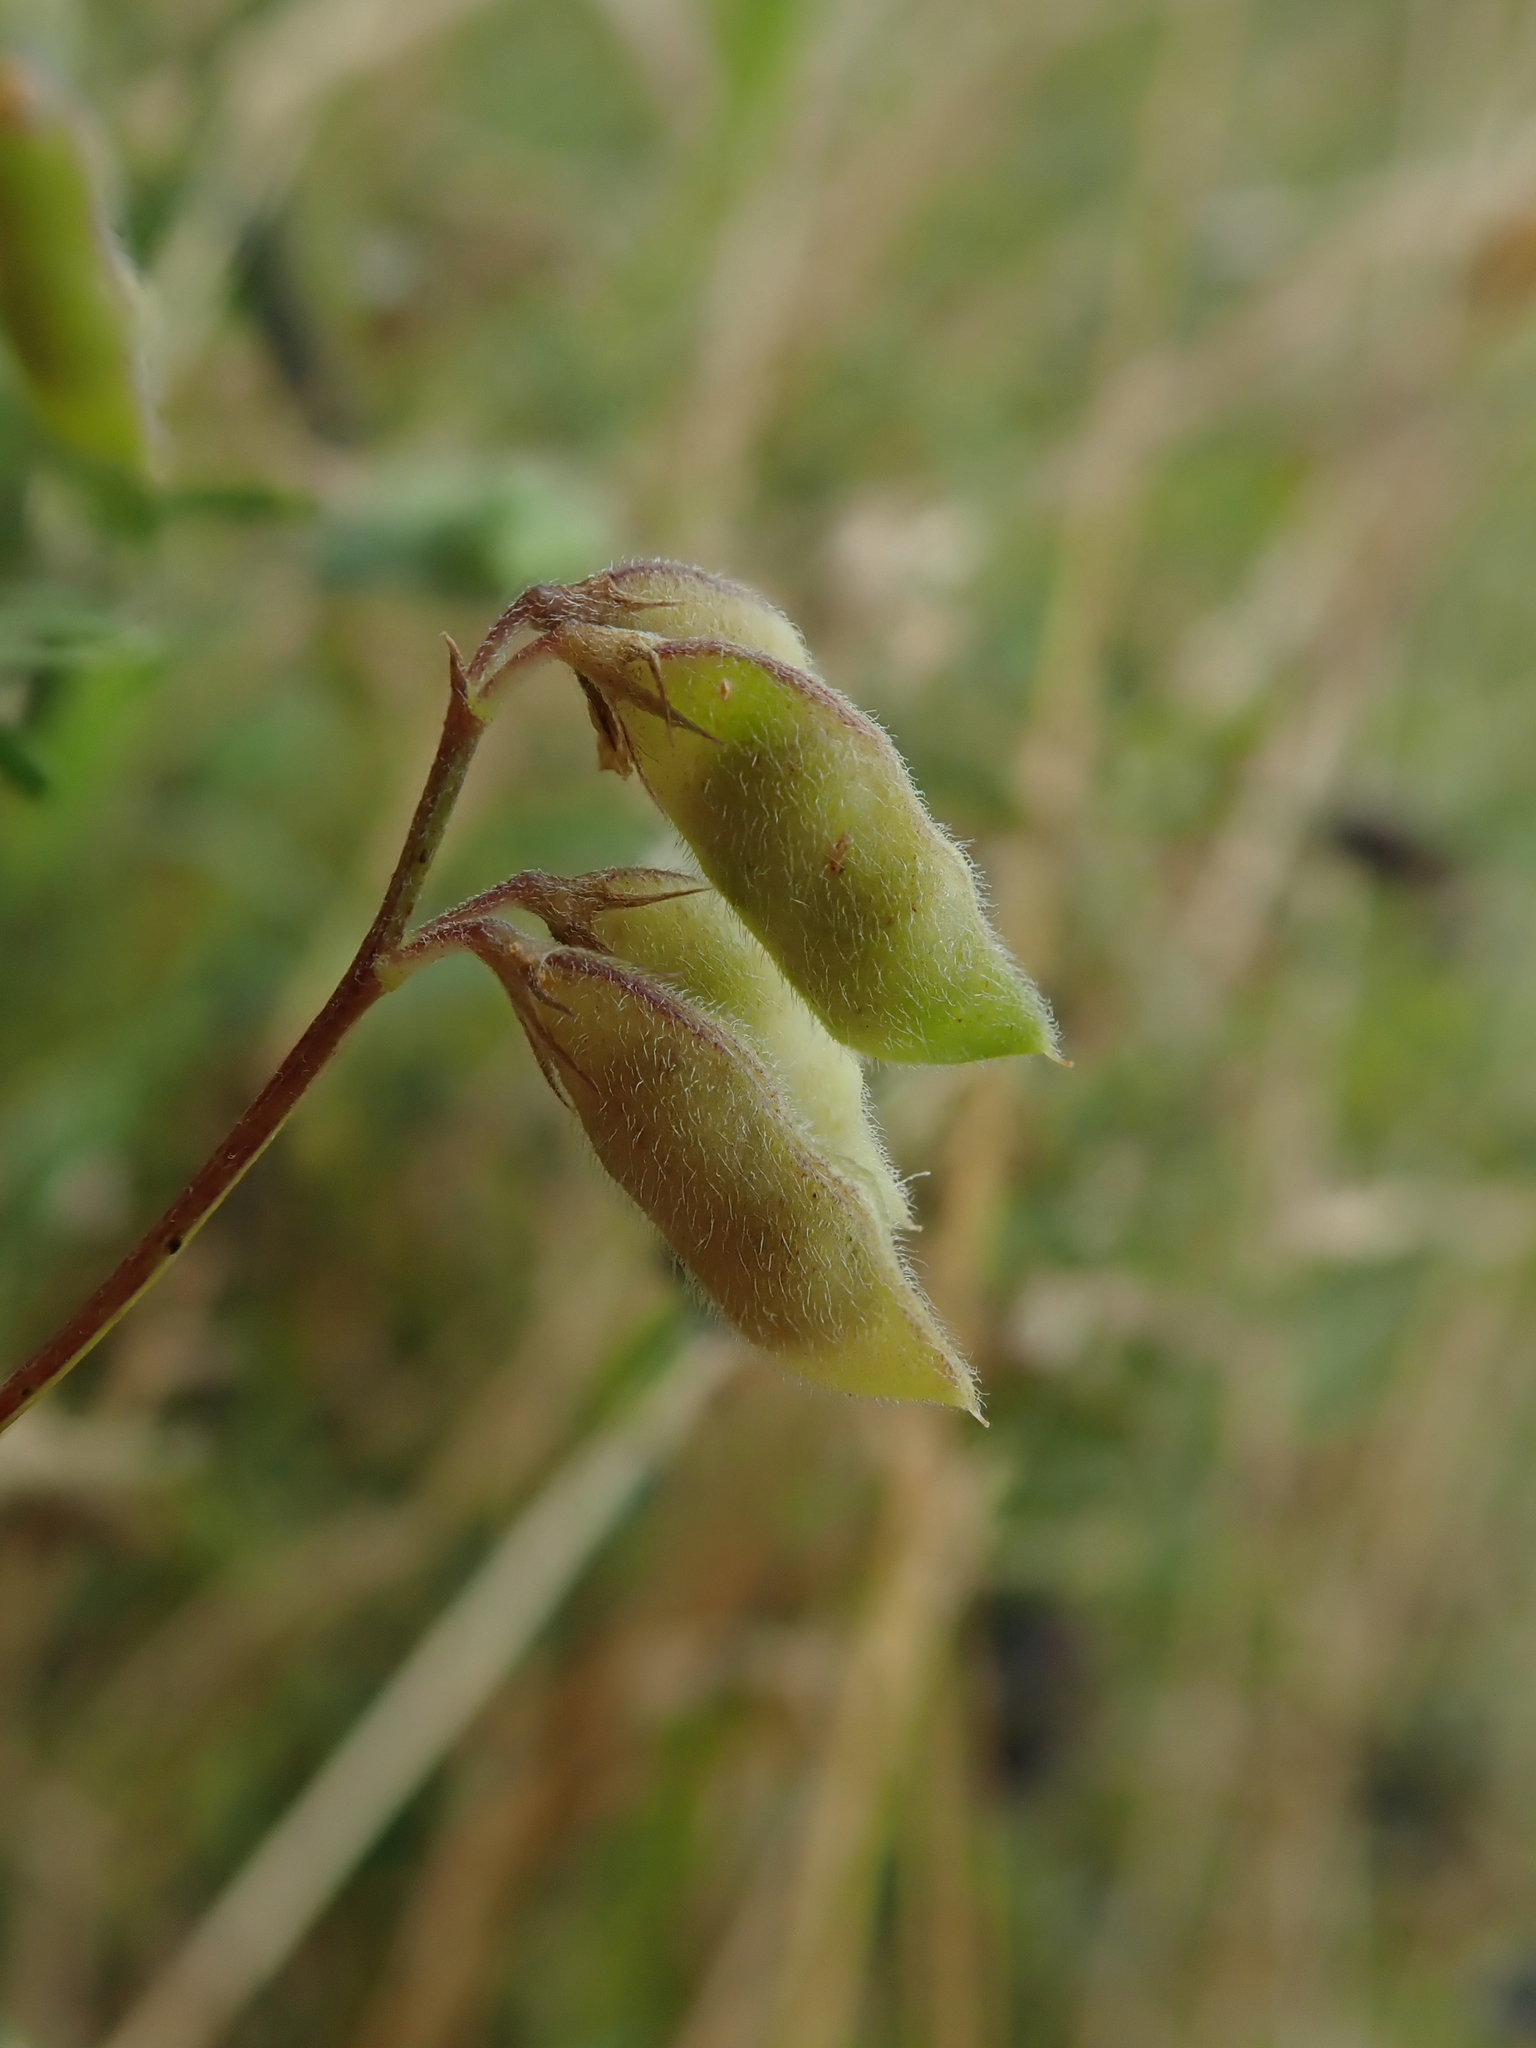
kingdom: Plantae
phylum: Tracheophyta
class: Magnoliopsida
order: Fabales
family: Fabaceae
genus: Vicia
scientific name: Vicia hirsuta
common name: Tiny vetch
